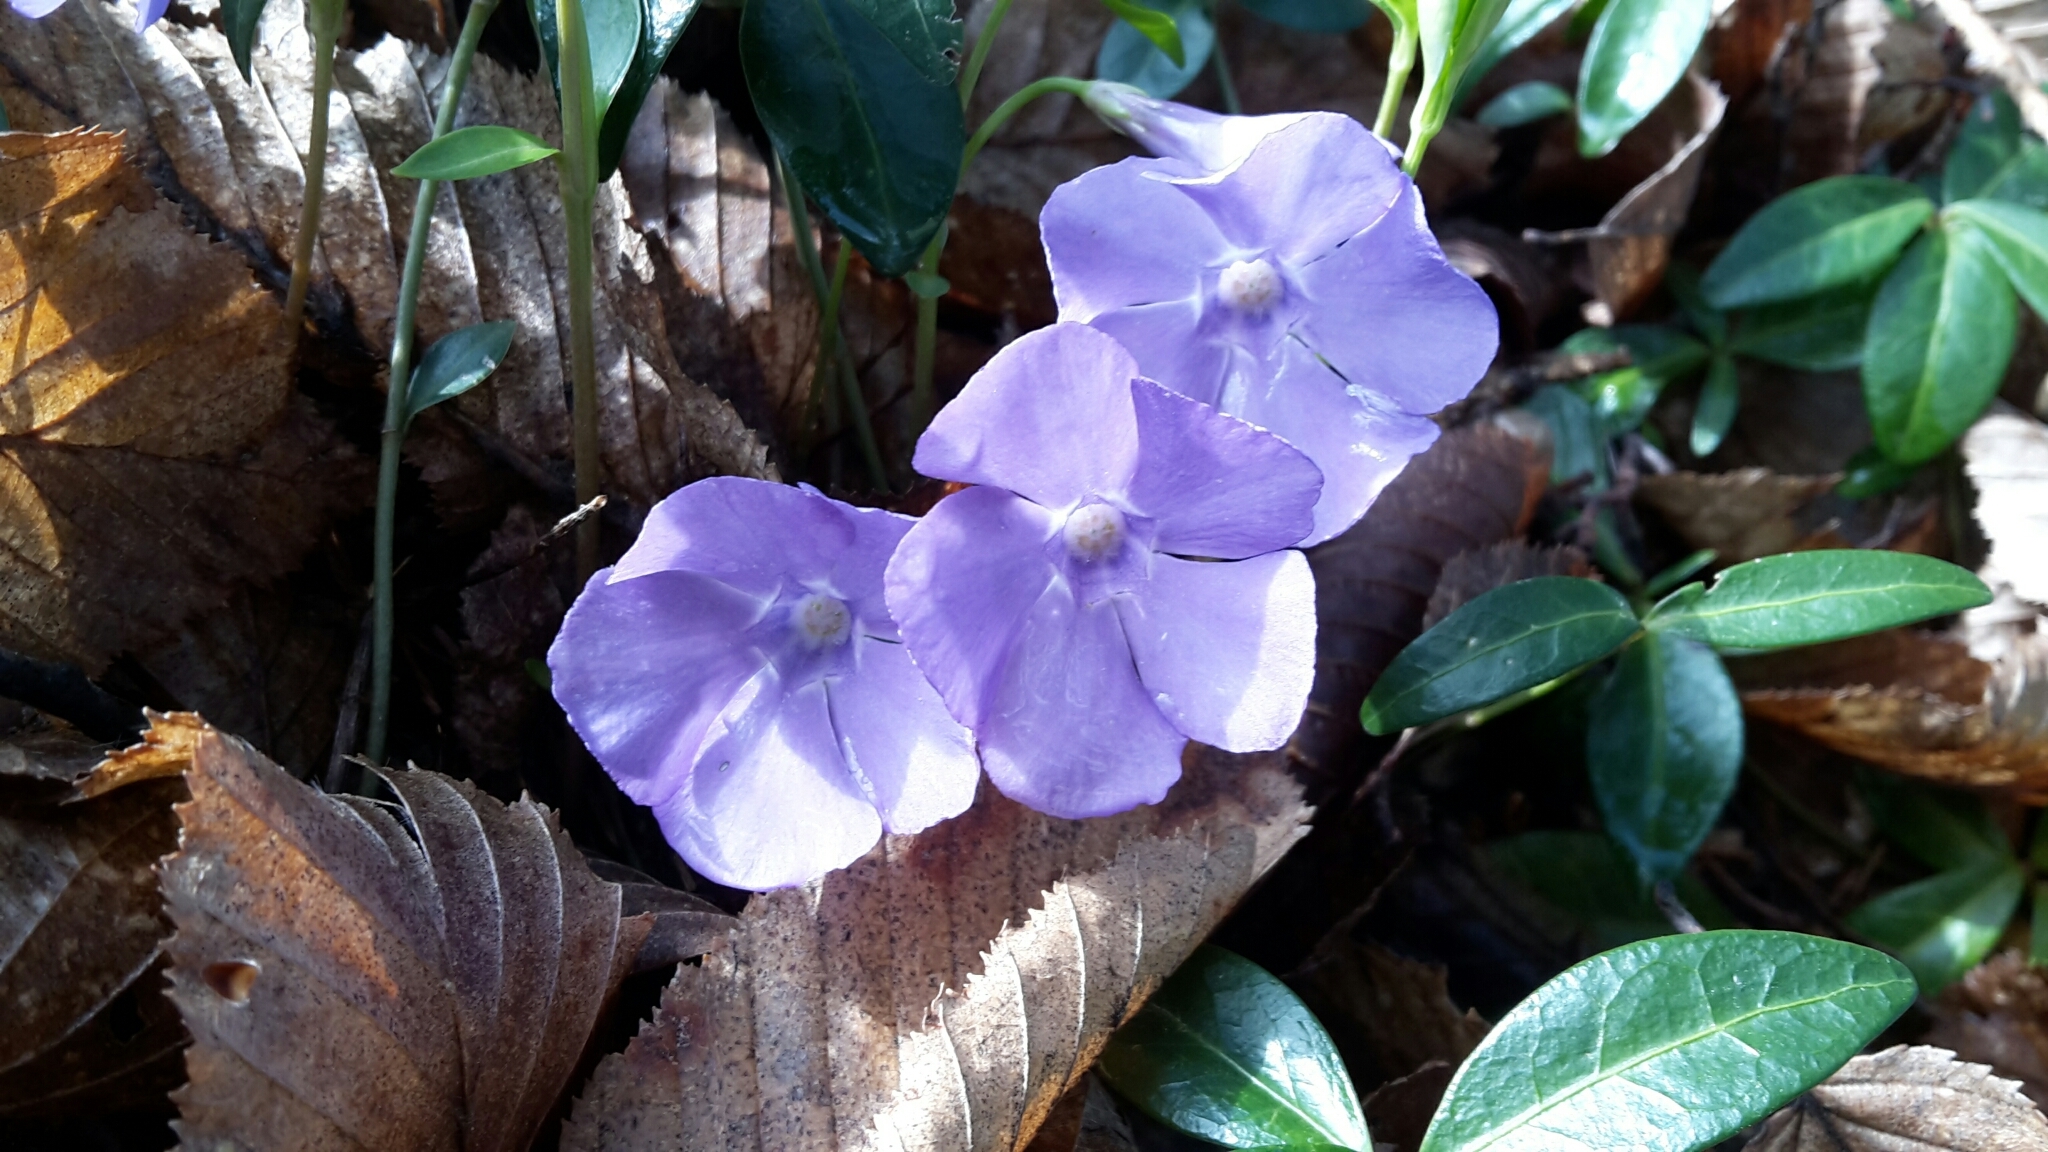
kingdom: Plantae
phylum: Tracheophyta
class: Magnoliopsida
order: Gentianales
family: Apocynaceae
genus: Vinca
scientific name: Vinca minor
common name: Lesser periwinkle
